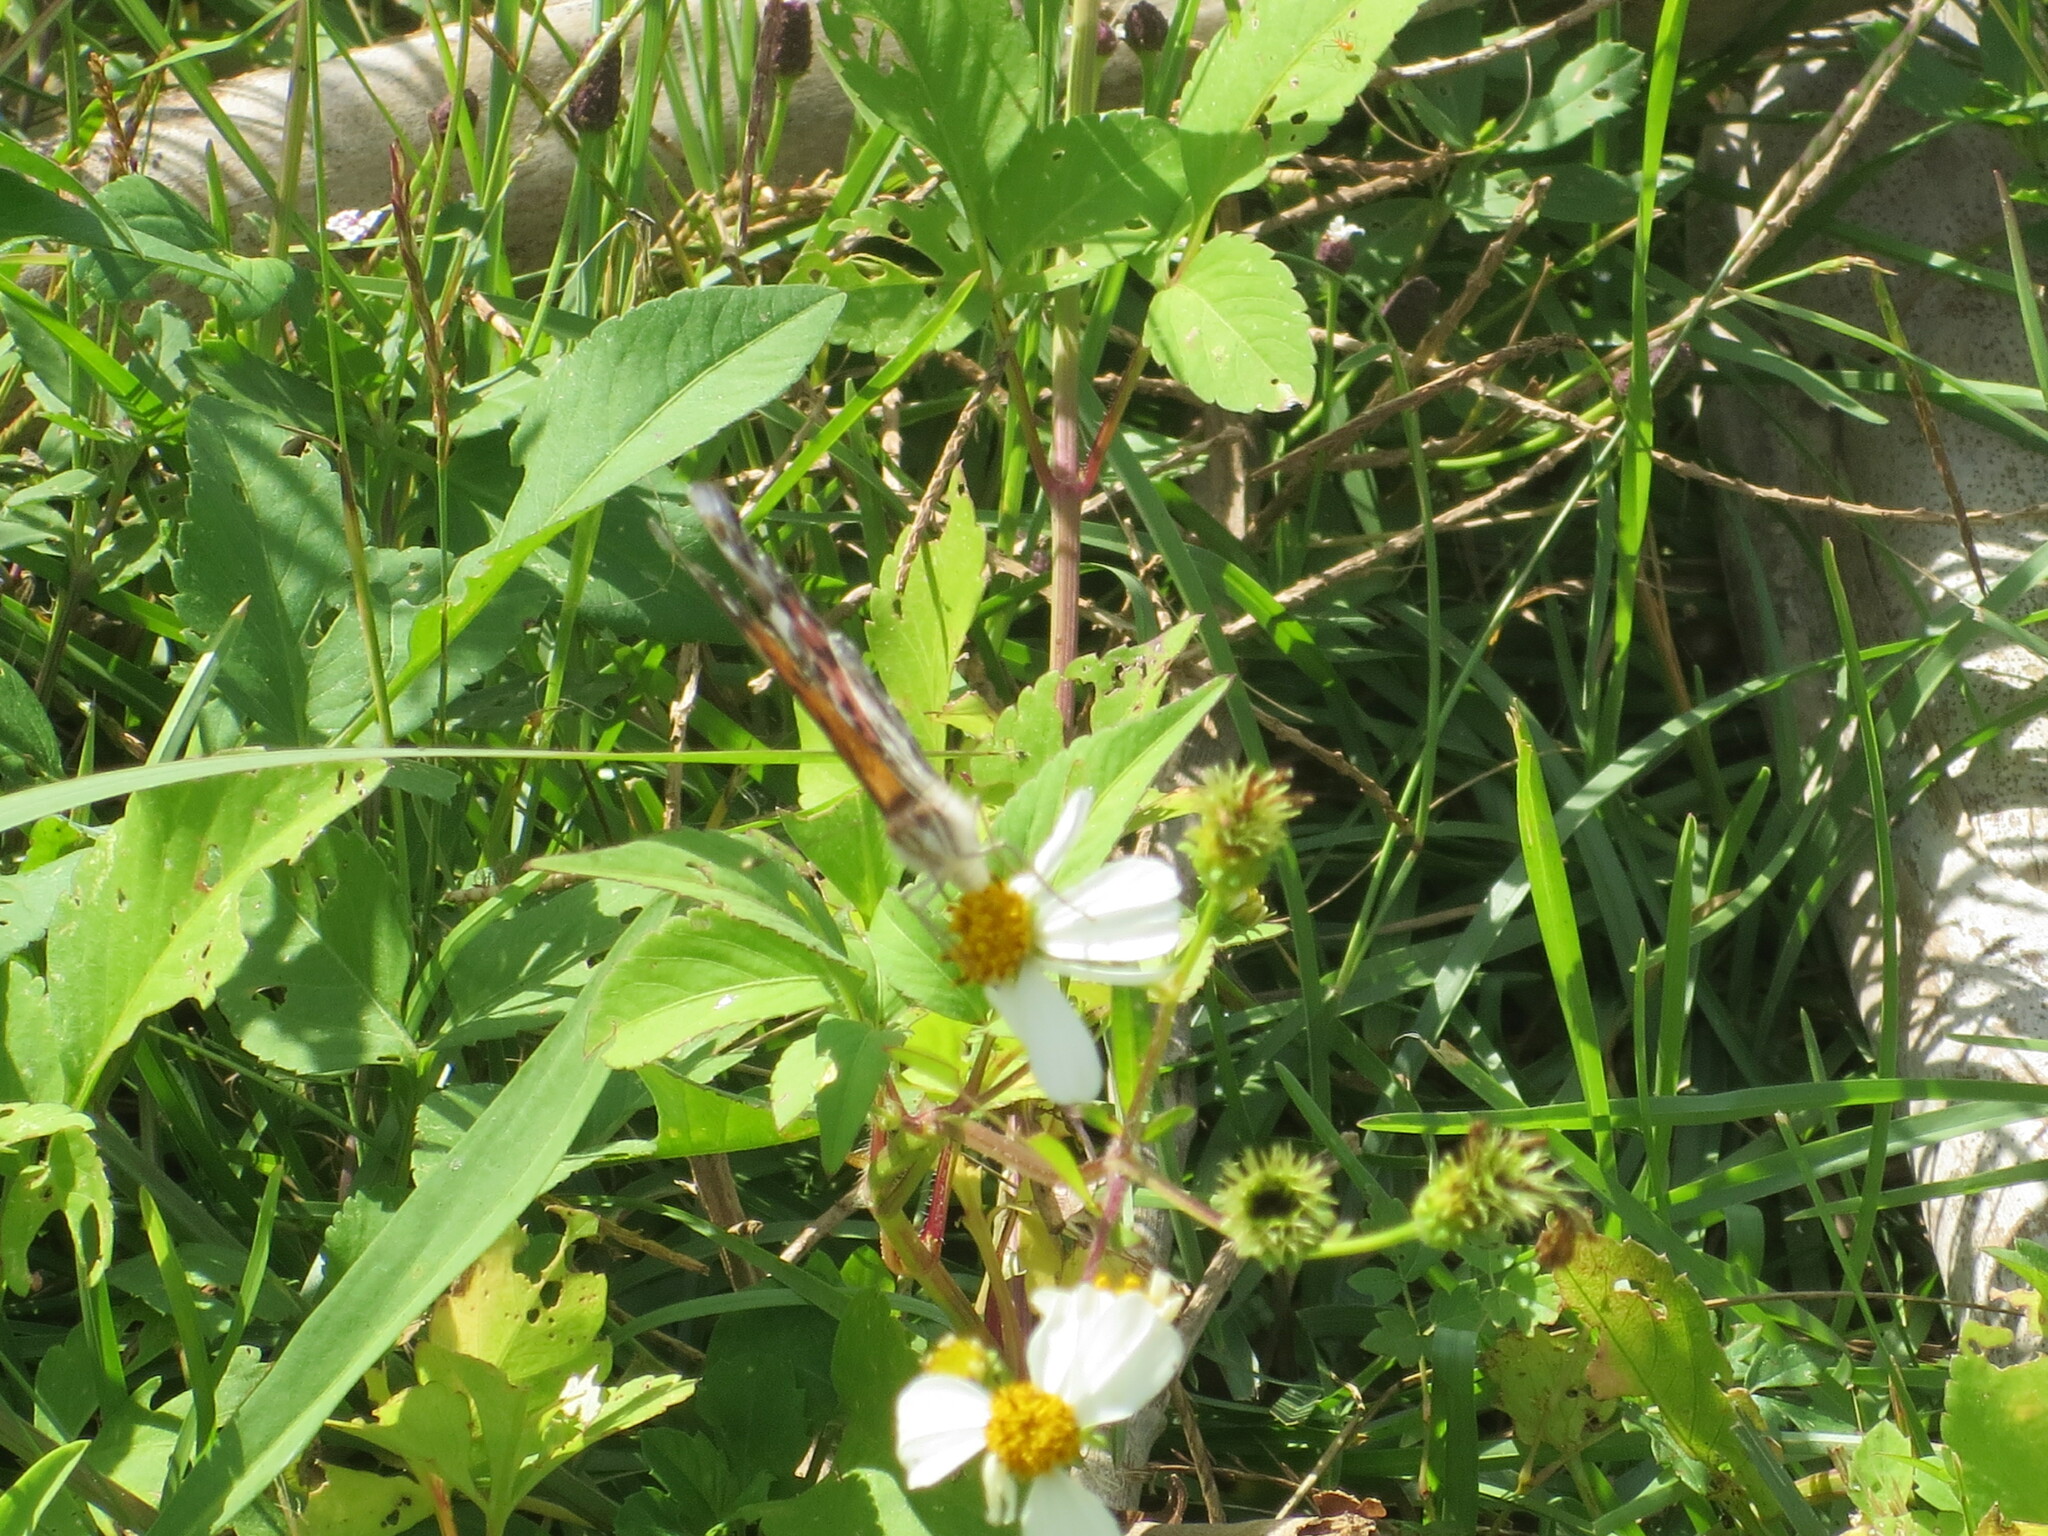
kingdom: Animalia
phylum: Arthropoda
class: Insecta
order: Lepidoptera
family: Nymphalidae
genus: Vanessa
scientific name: Vanessa virginiensis
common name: American lady
